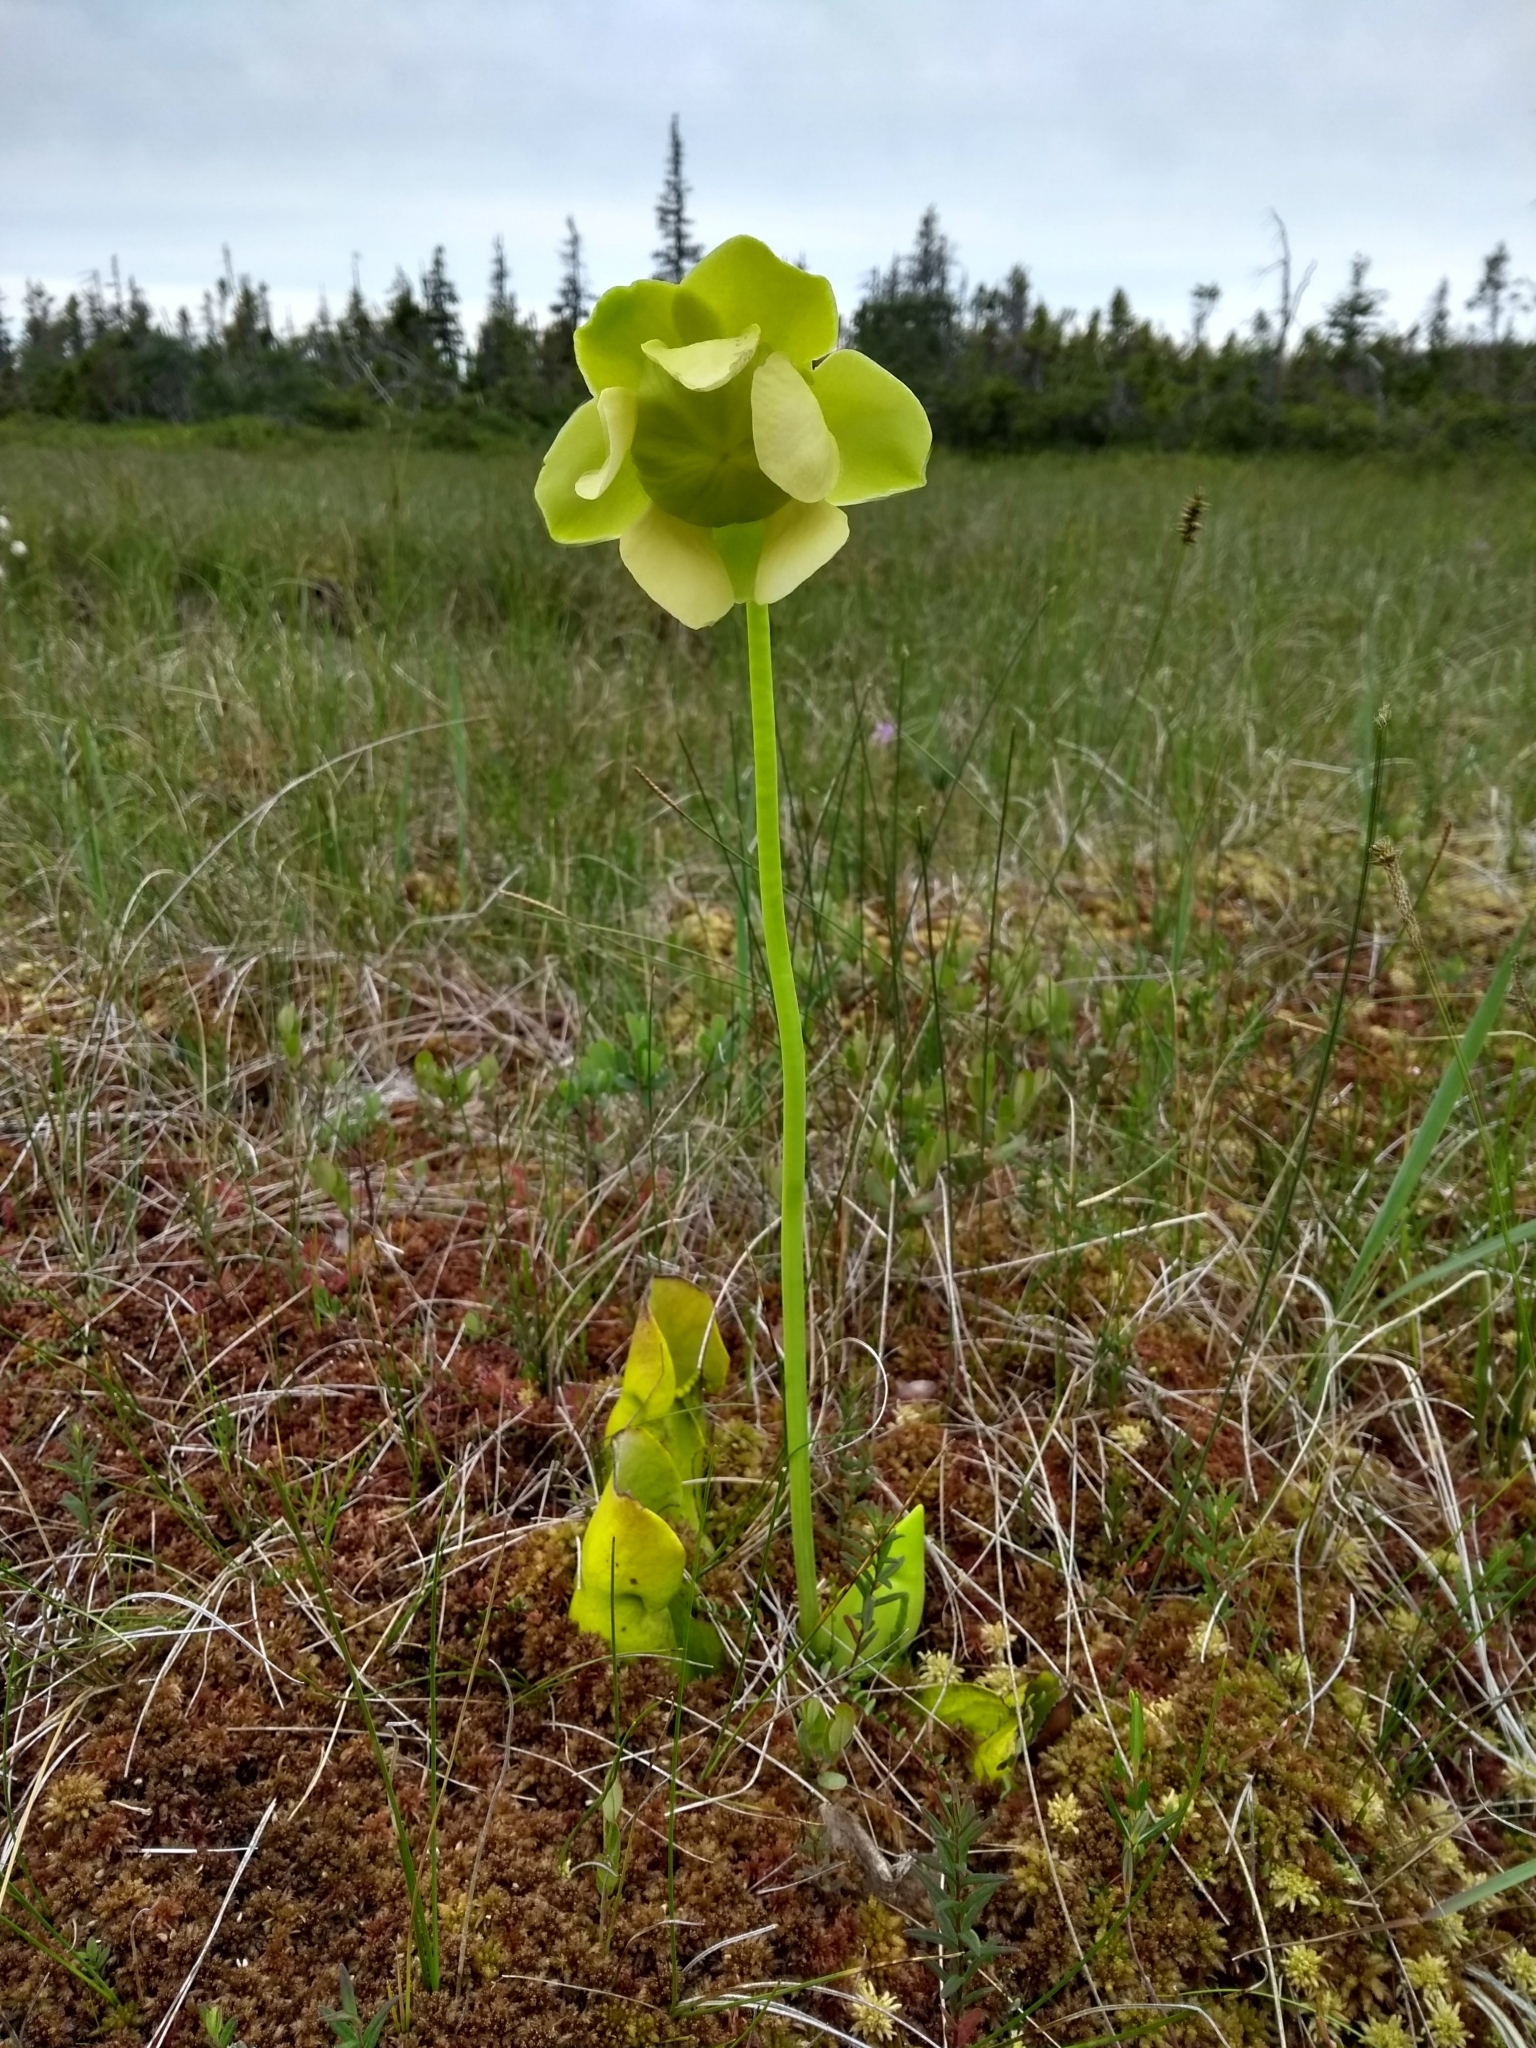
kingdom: Plantae
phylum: Tracheophyta
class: Magnoliopsida
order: Ericales
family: Sarraceniaceae
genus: Sarracenia
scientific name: Sarracenia purpurea
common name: Pitcherplant
